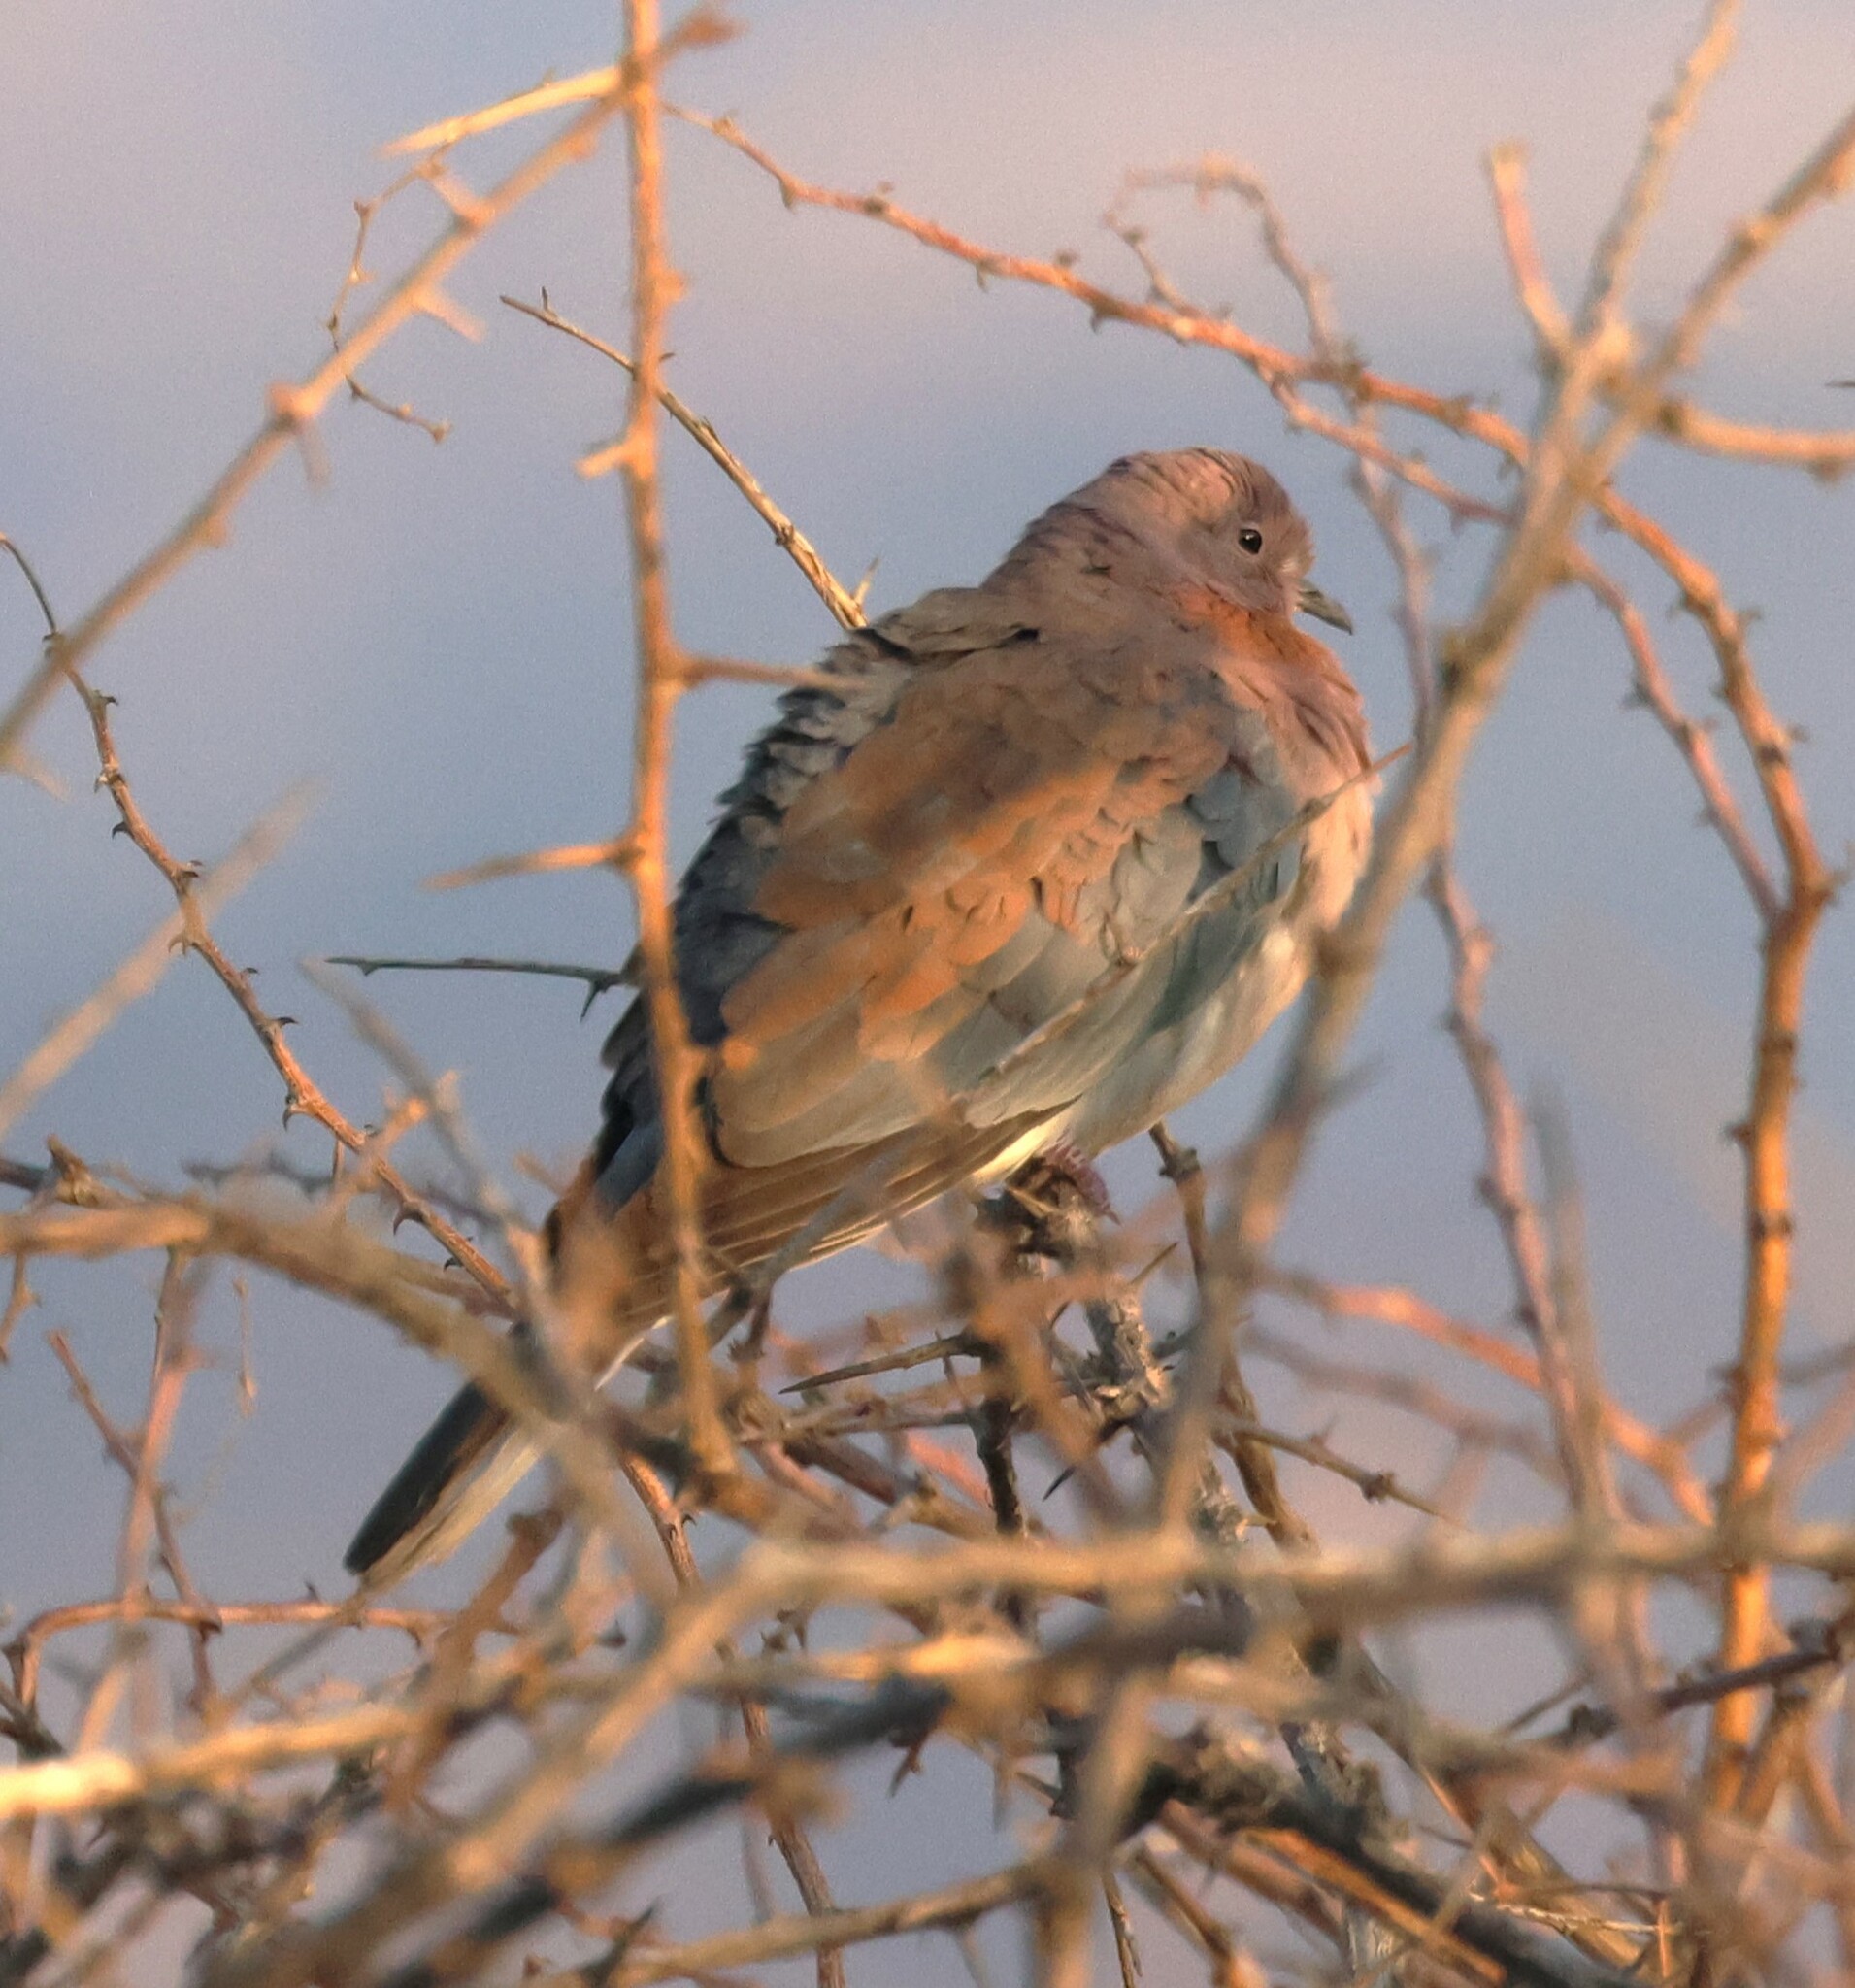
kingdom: Animalia
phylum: Chordata
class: Aves
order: Columbiformes
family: Columbidae
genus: Spilopelia
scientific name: Spilopelia senegalensis
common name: Laughing dove
